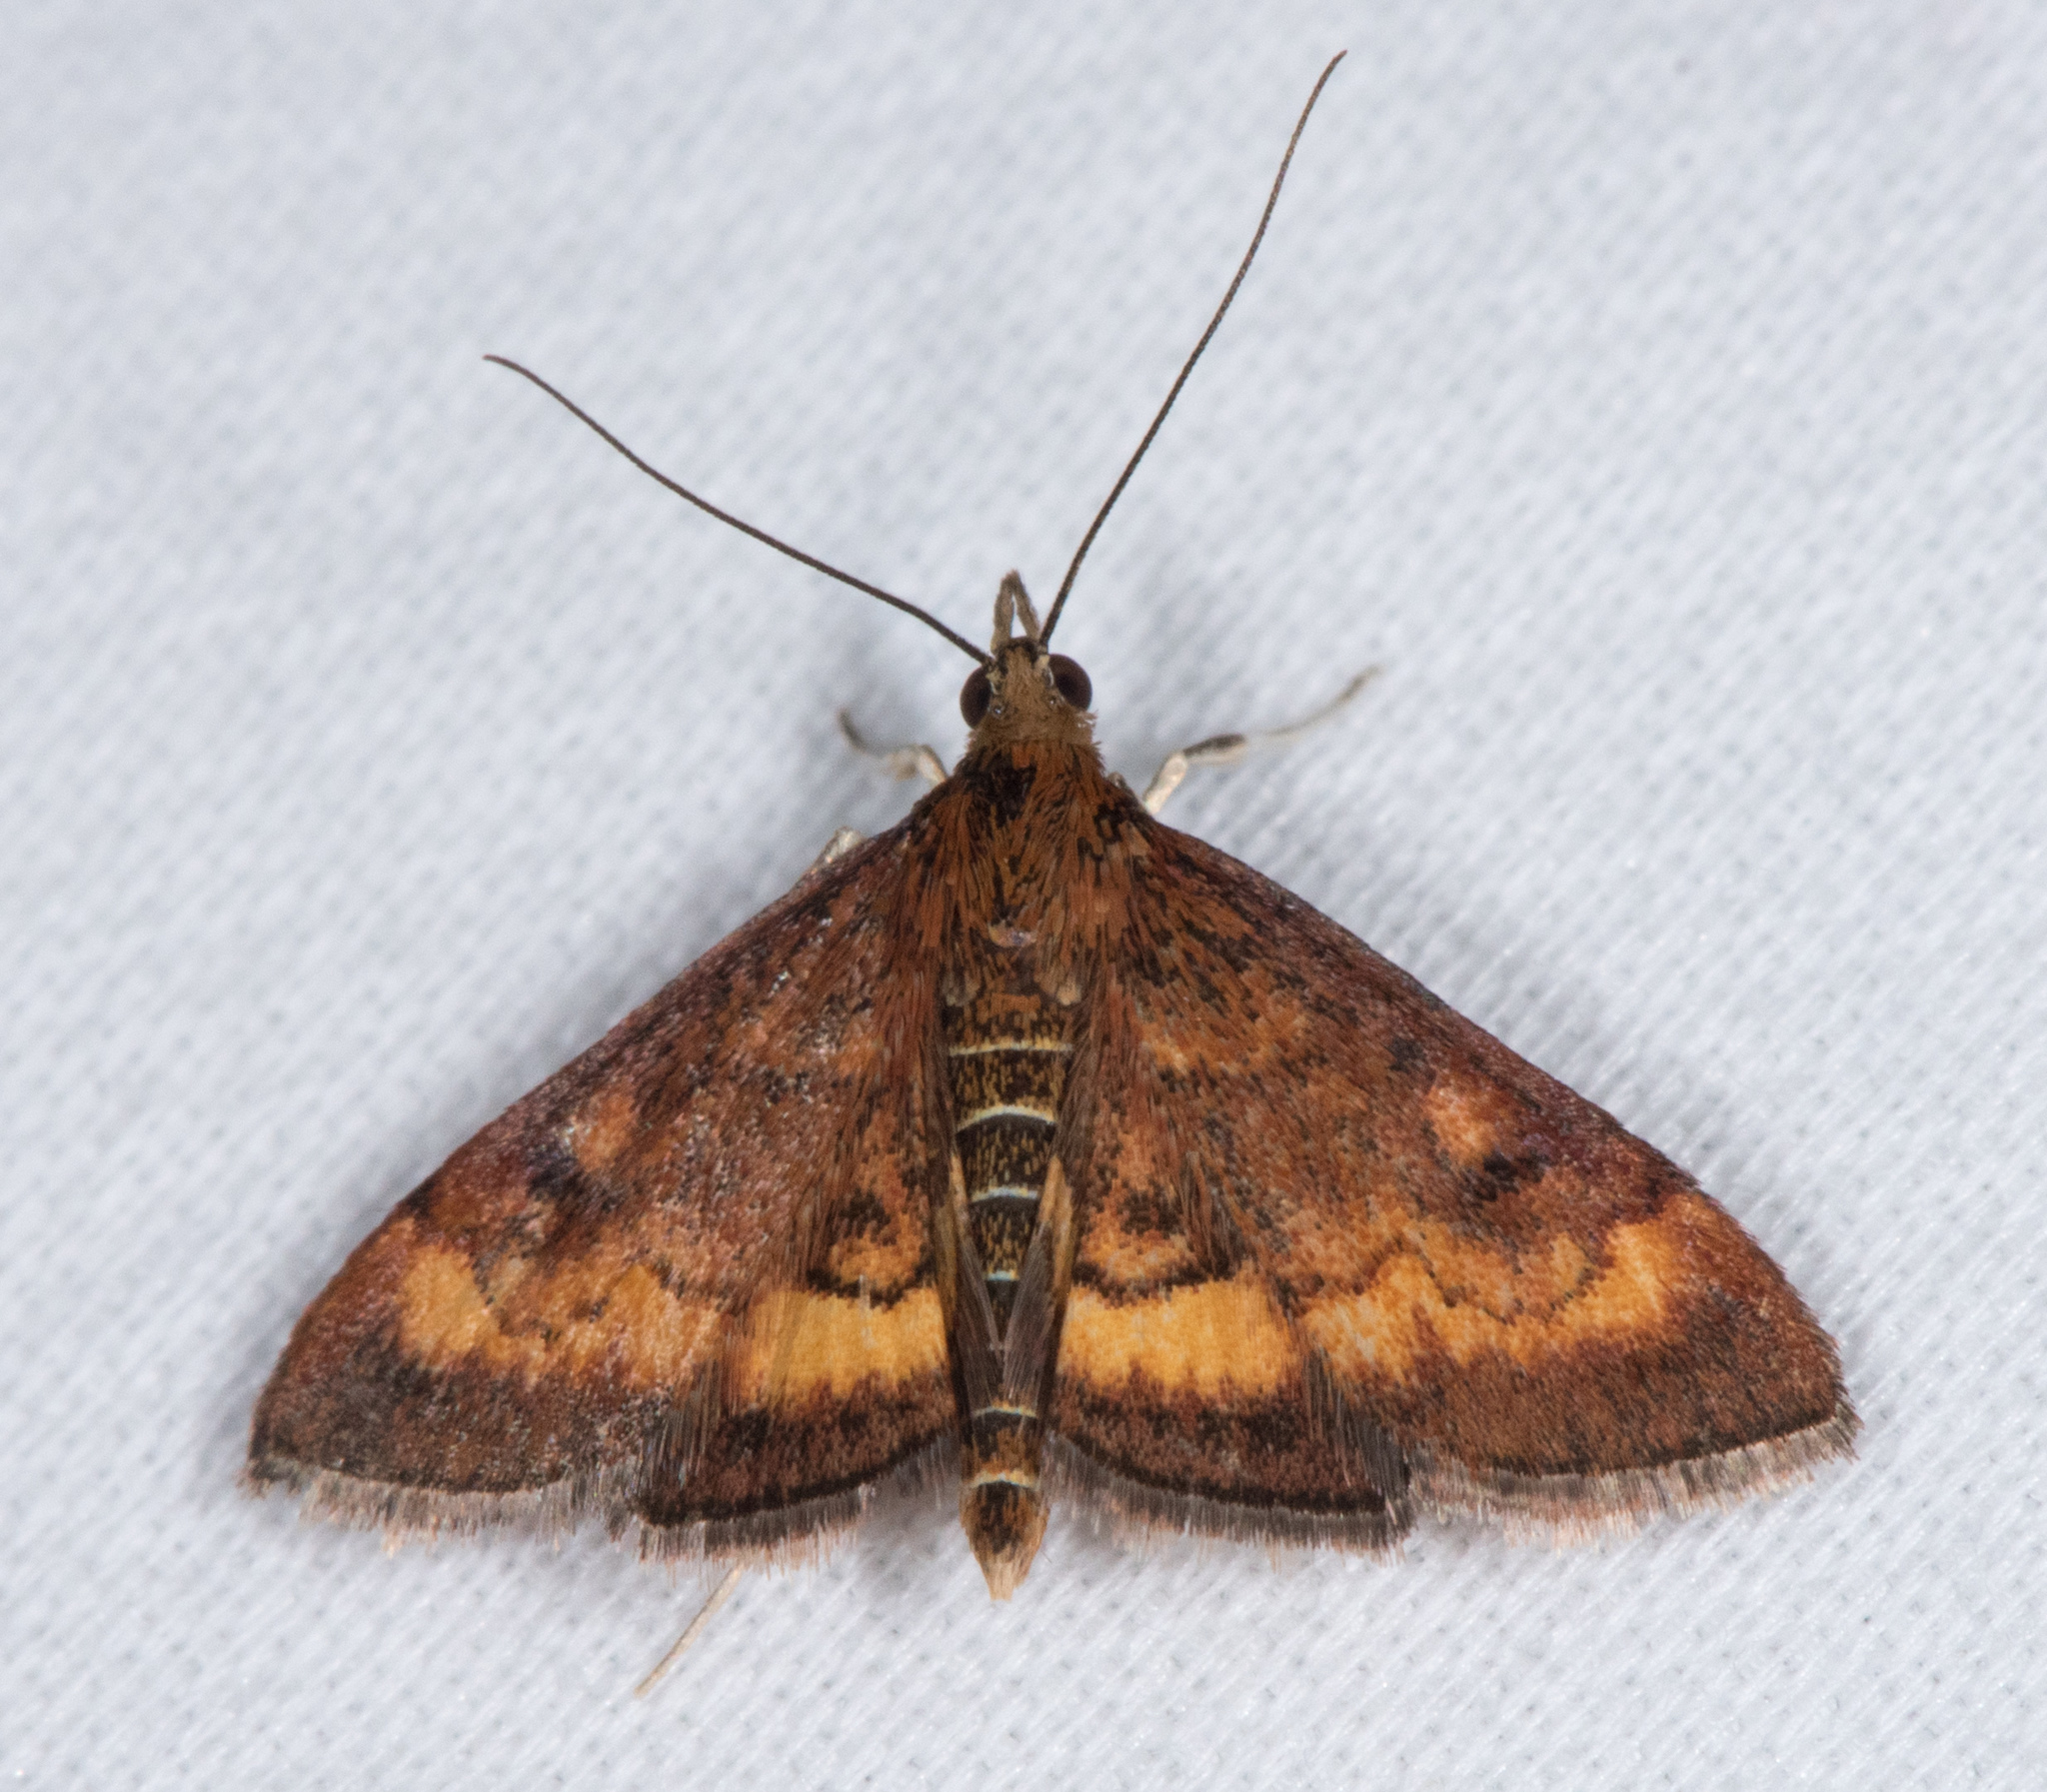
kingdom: Animalia
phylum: Arthropoda
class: Insecta
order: Lepidoptera
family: Crambidae
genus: Pyrausta
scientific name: Pyrausta californicalis
